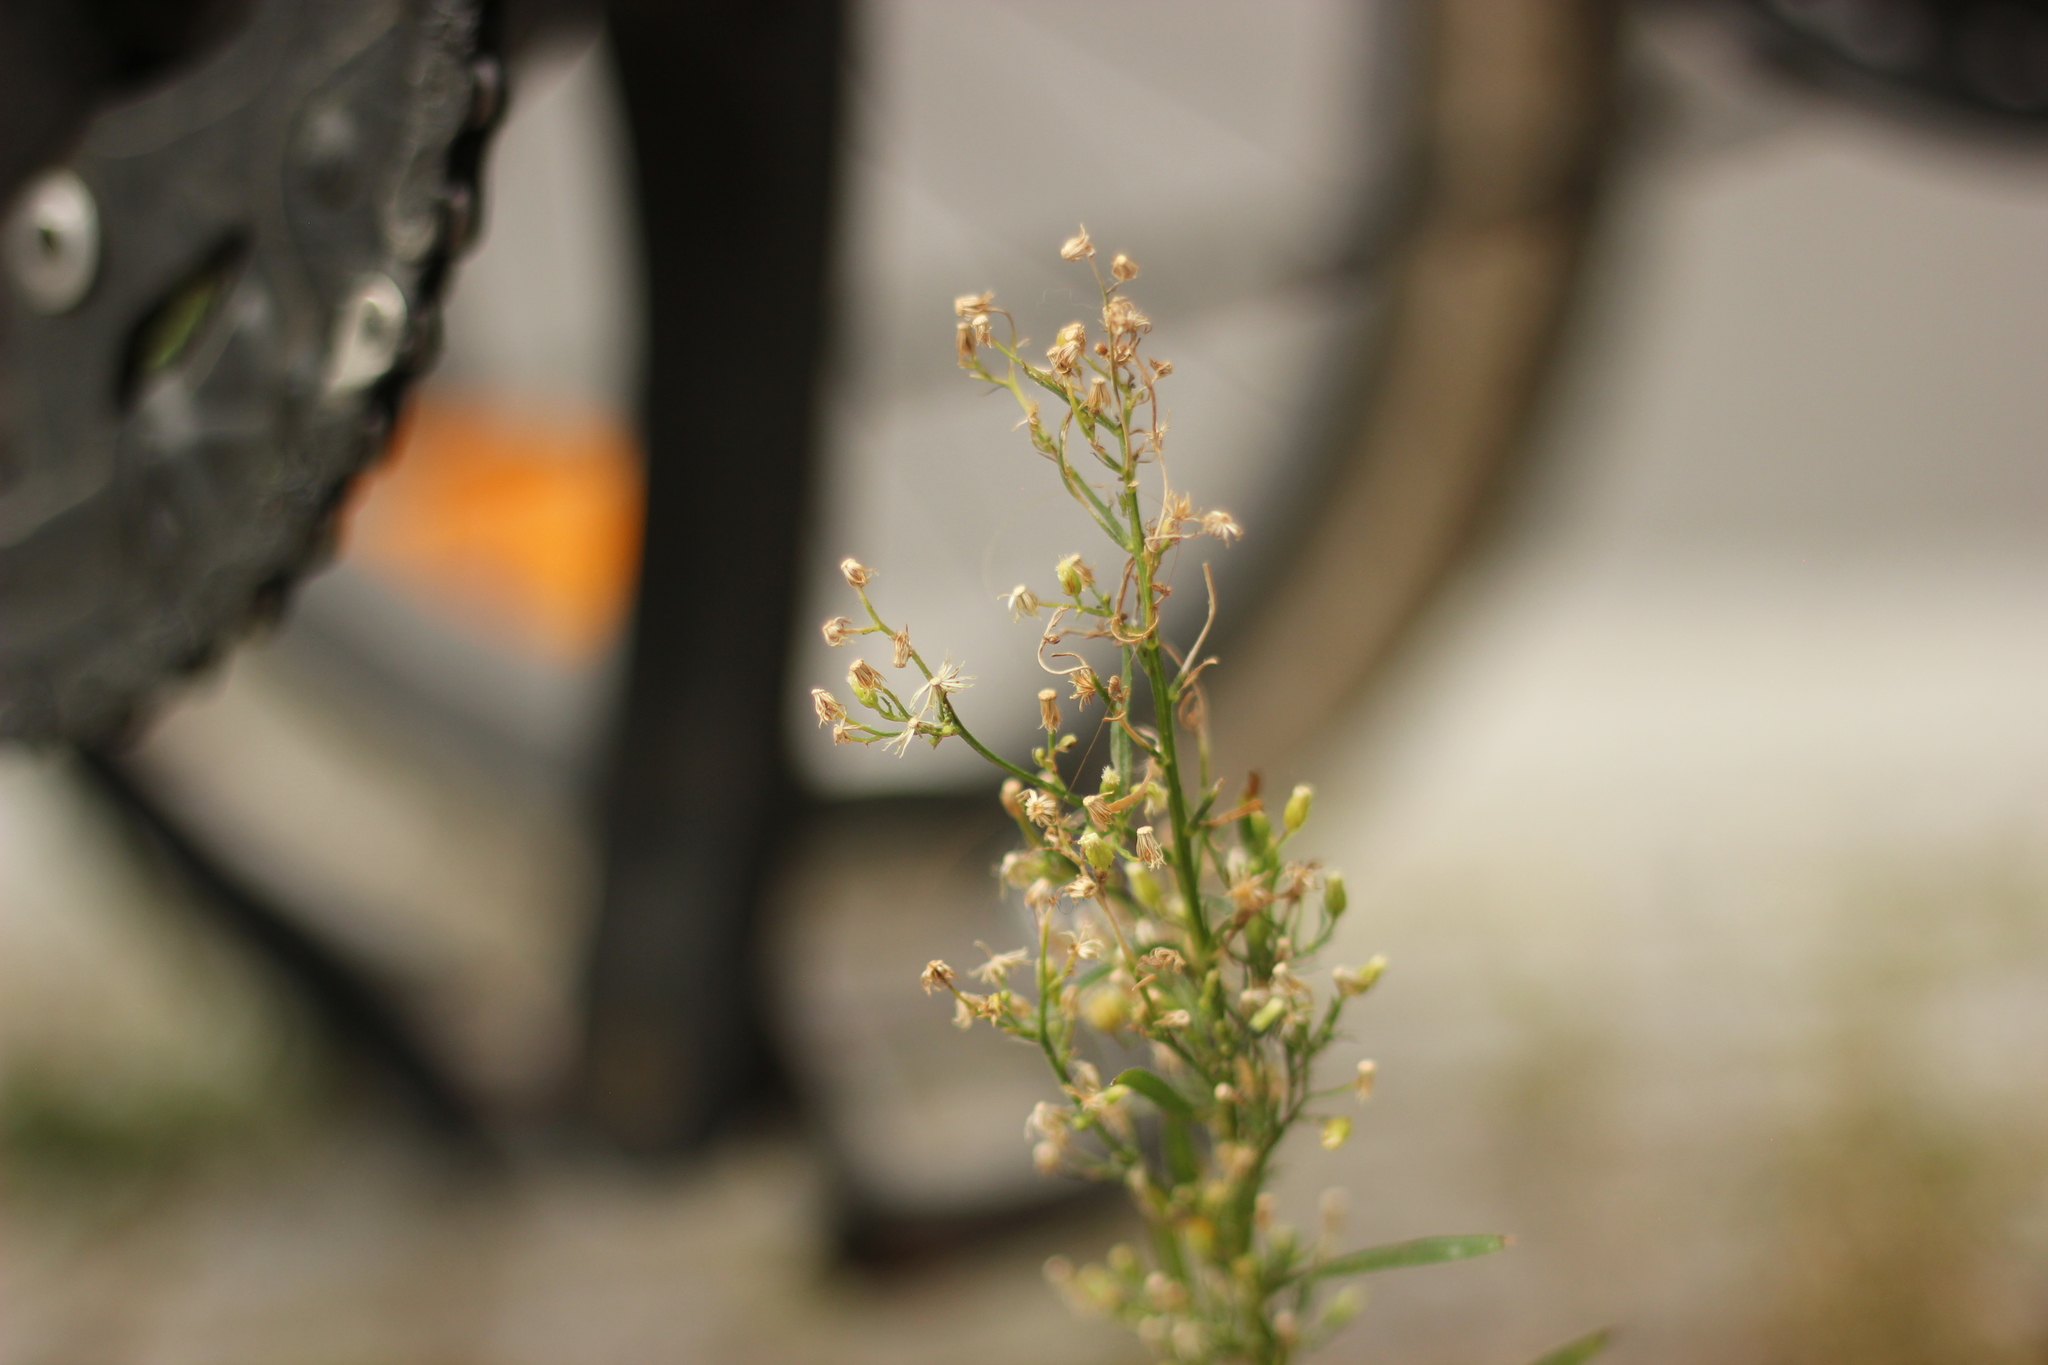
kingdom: Plantae
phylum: Tracheophyta
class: Magnoliopsida
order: Asterales
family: Asteraceae
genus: Erigeron
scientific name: Erigeron canadensis
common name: Canadian fleabane
